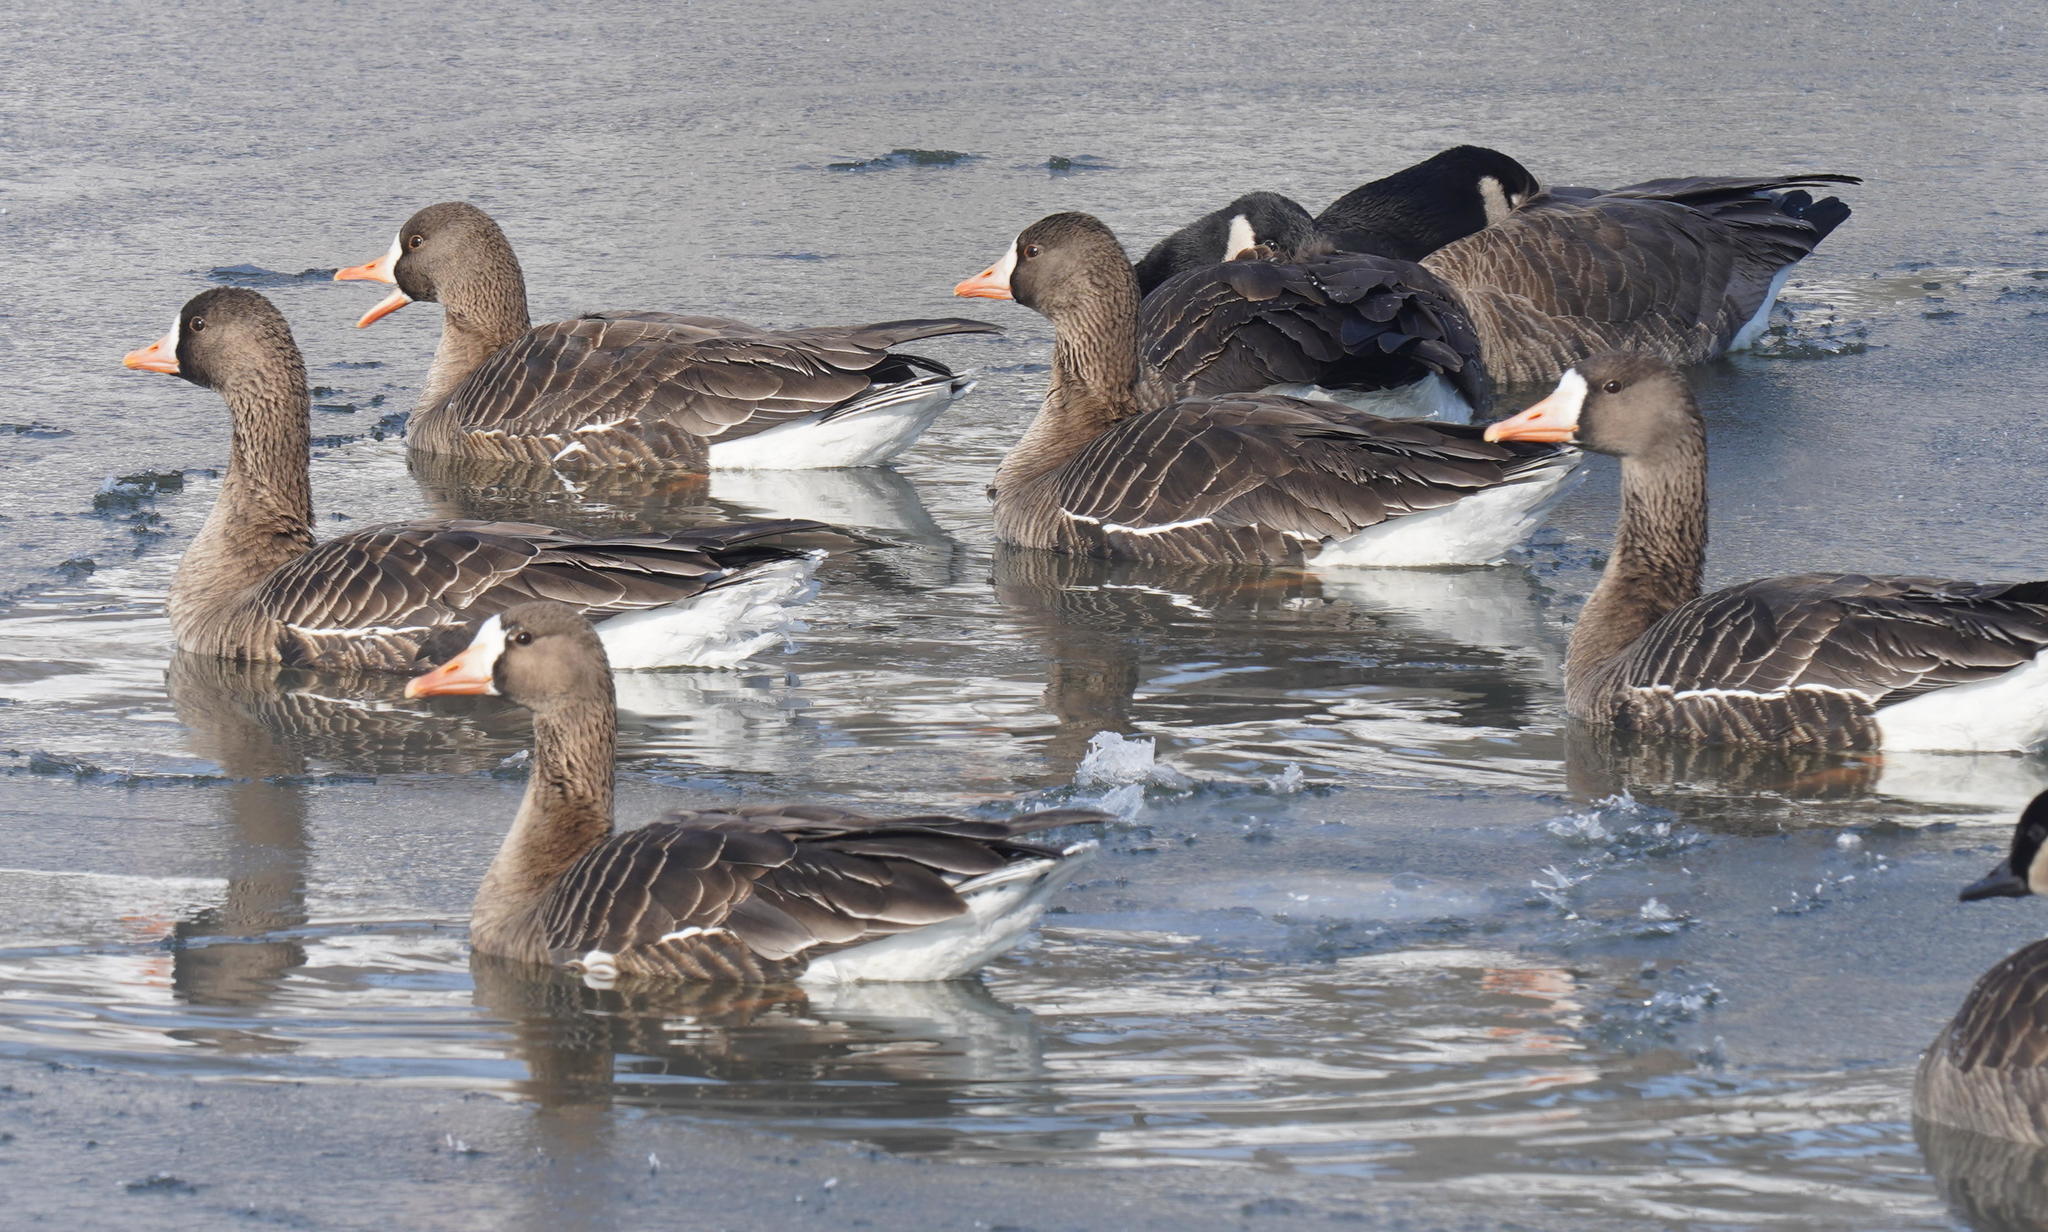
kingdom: Animalia
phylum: Chordata
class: Aves
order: Anseriformes
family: Anatidae
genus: Anser
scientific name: Anser albifrons
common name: Greater white-fronted goose
